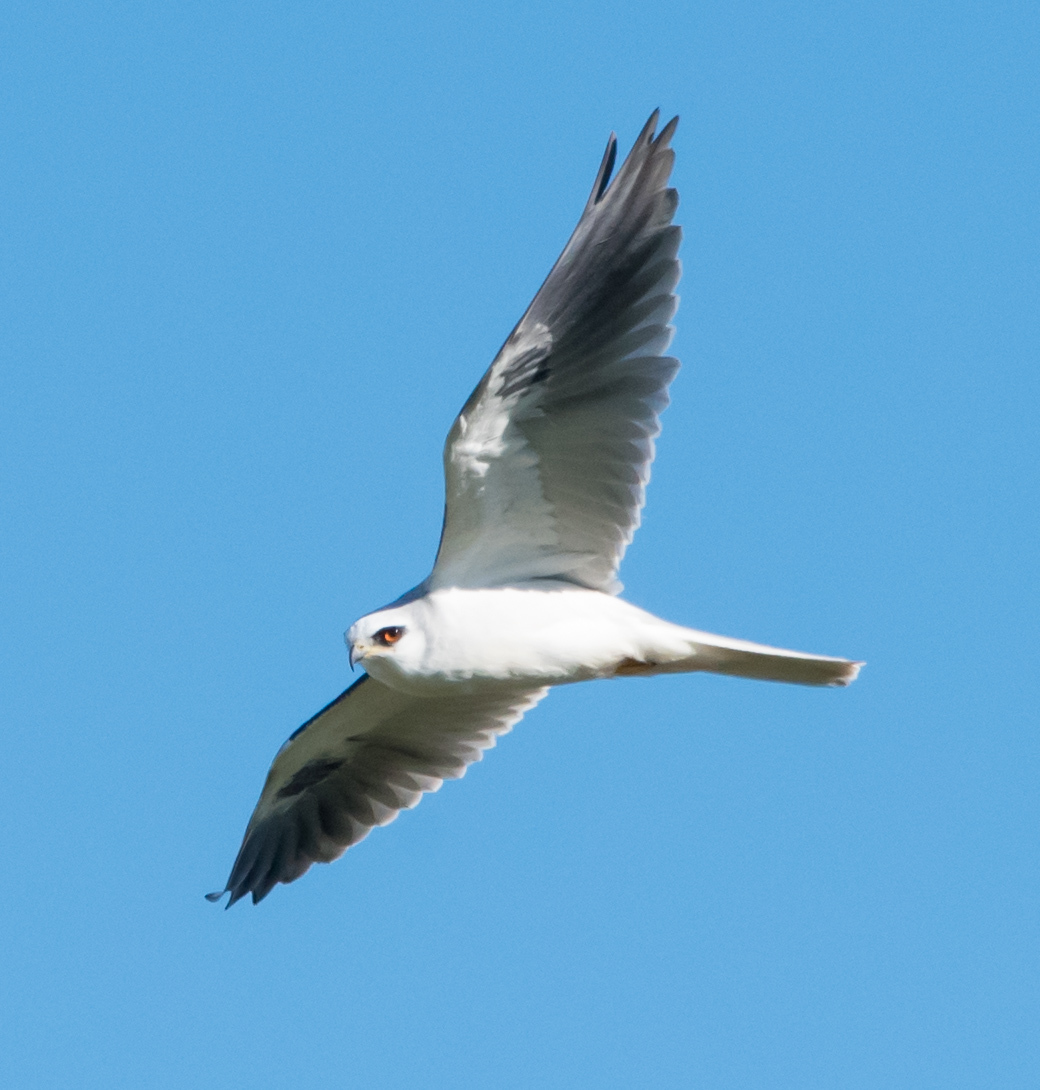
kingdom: Animalia
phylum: Chordata
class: Aves
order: Accipitriformes
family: Accipitridae
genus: Elanus
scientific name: Elanus leucurus
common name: White-tailed kite
